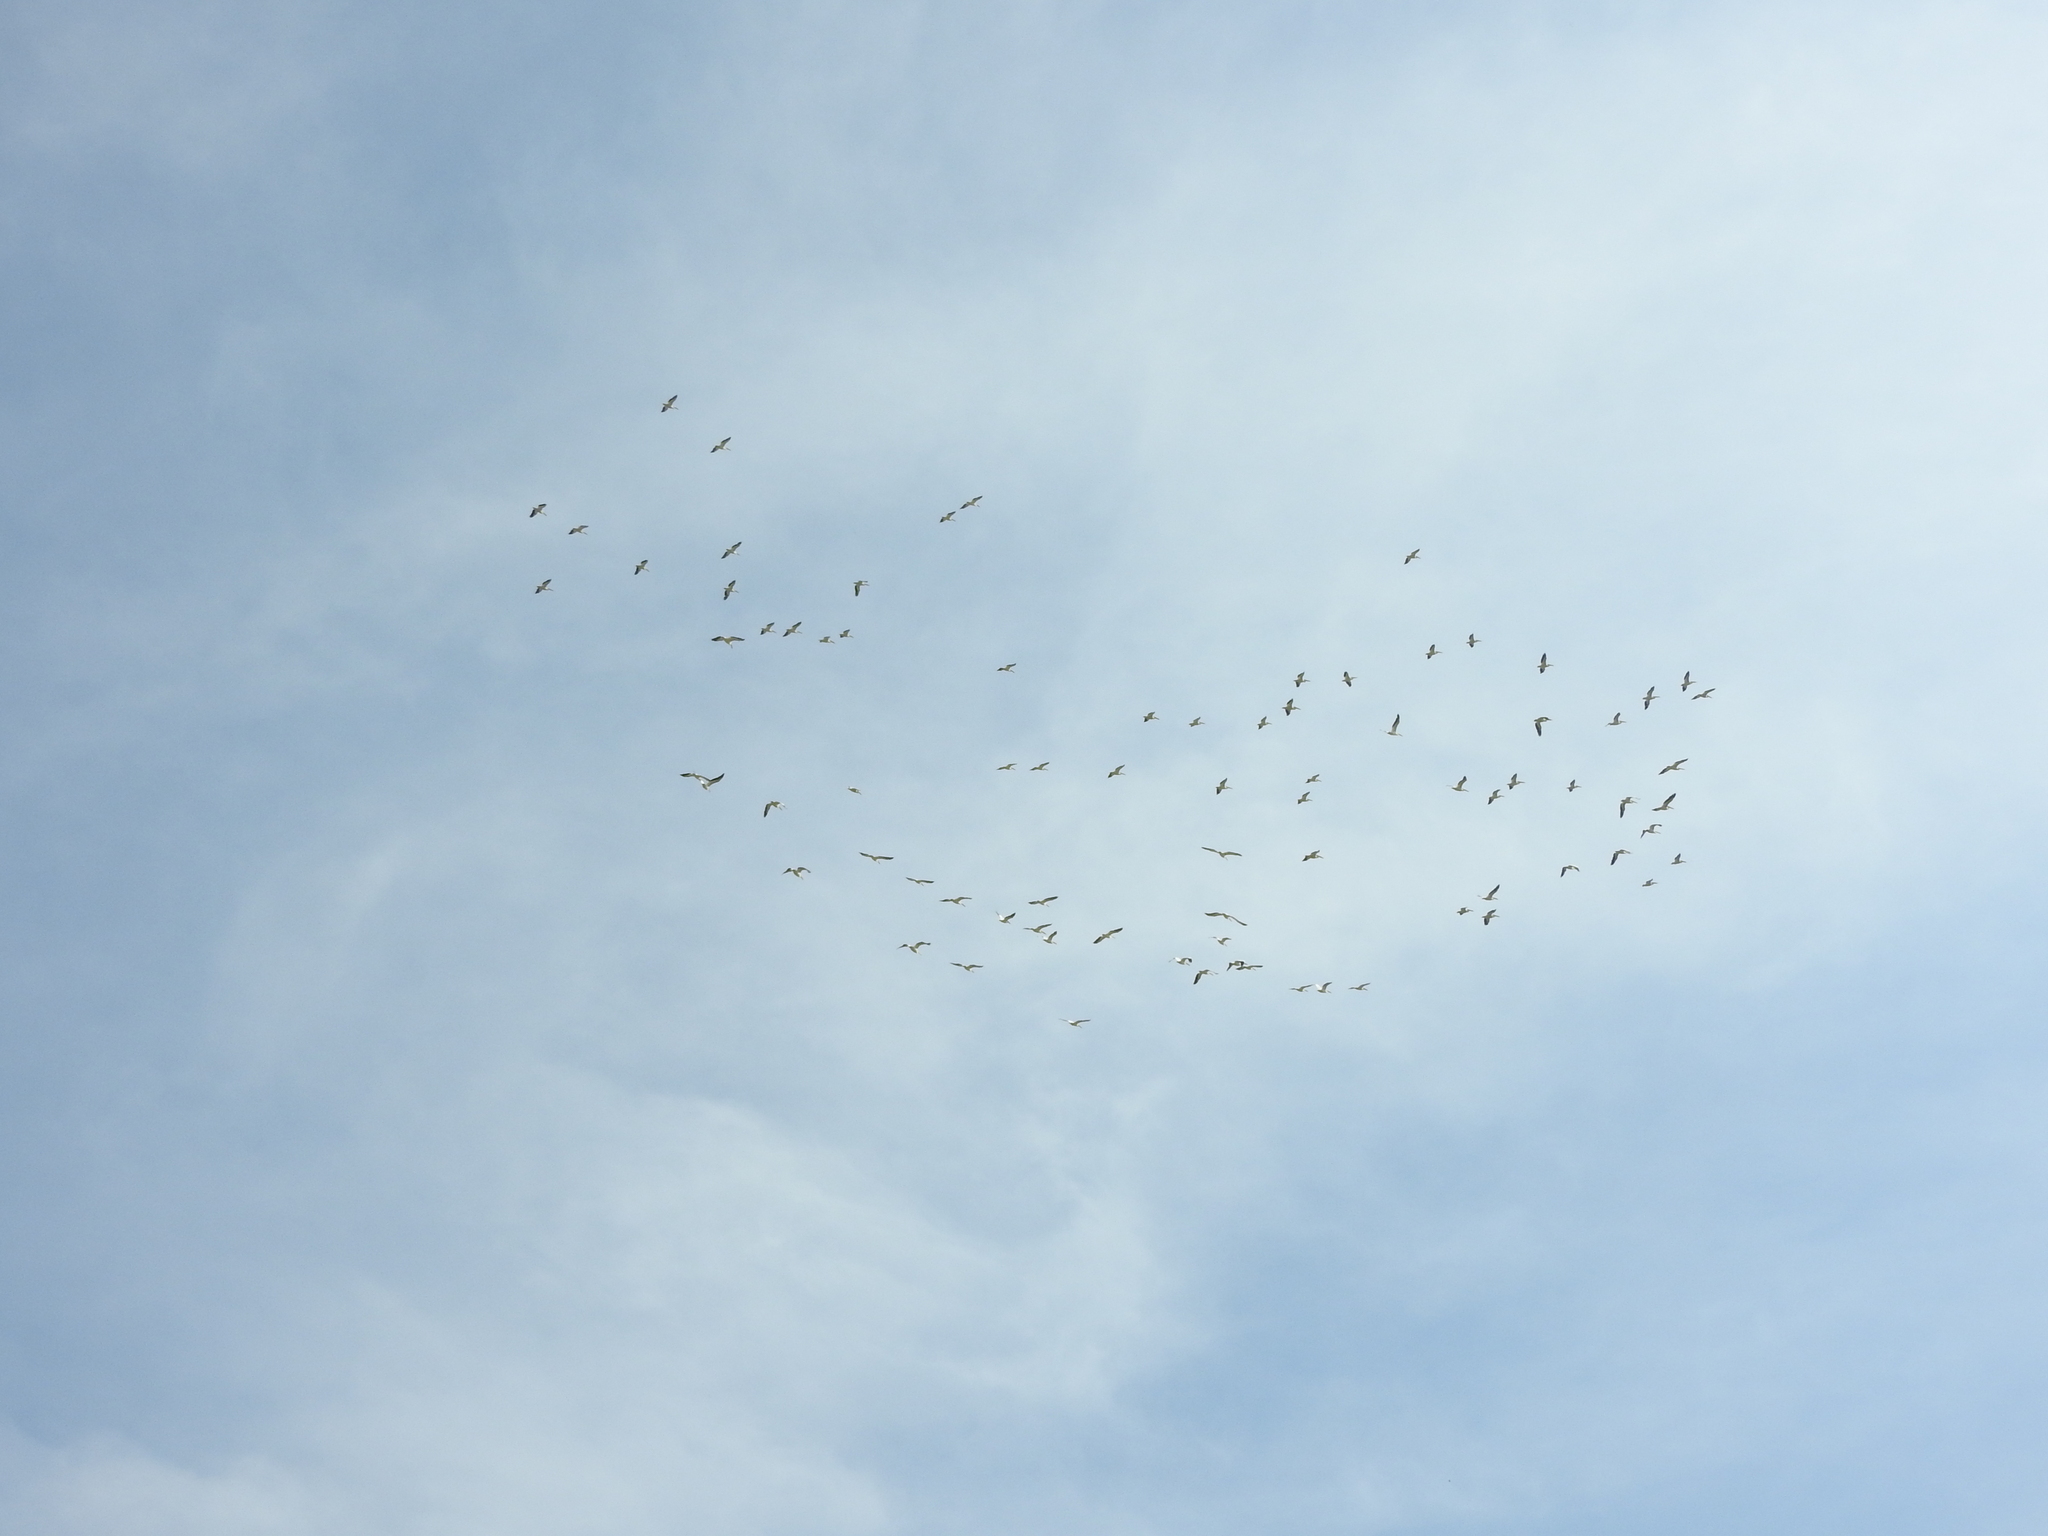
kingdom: Animalia
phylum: Chordata
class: Aves
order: Pelecaniformes
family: Pelecanidae
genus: Pelecanus
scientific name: Pelecanus erythrorhynchos
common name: American white pelican
